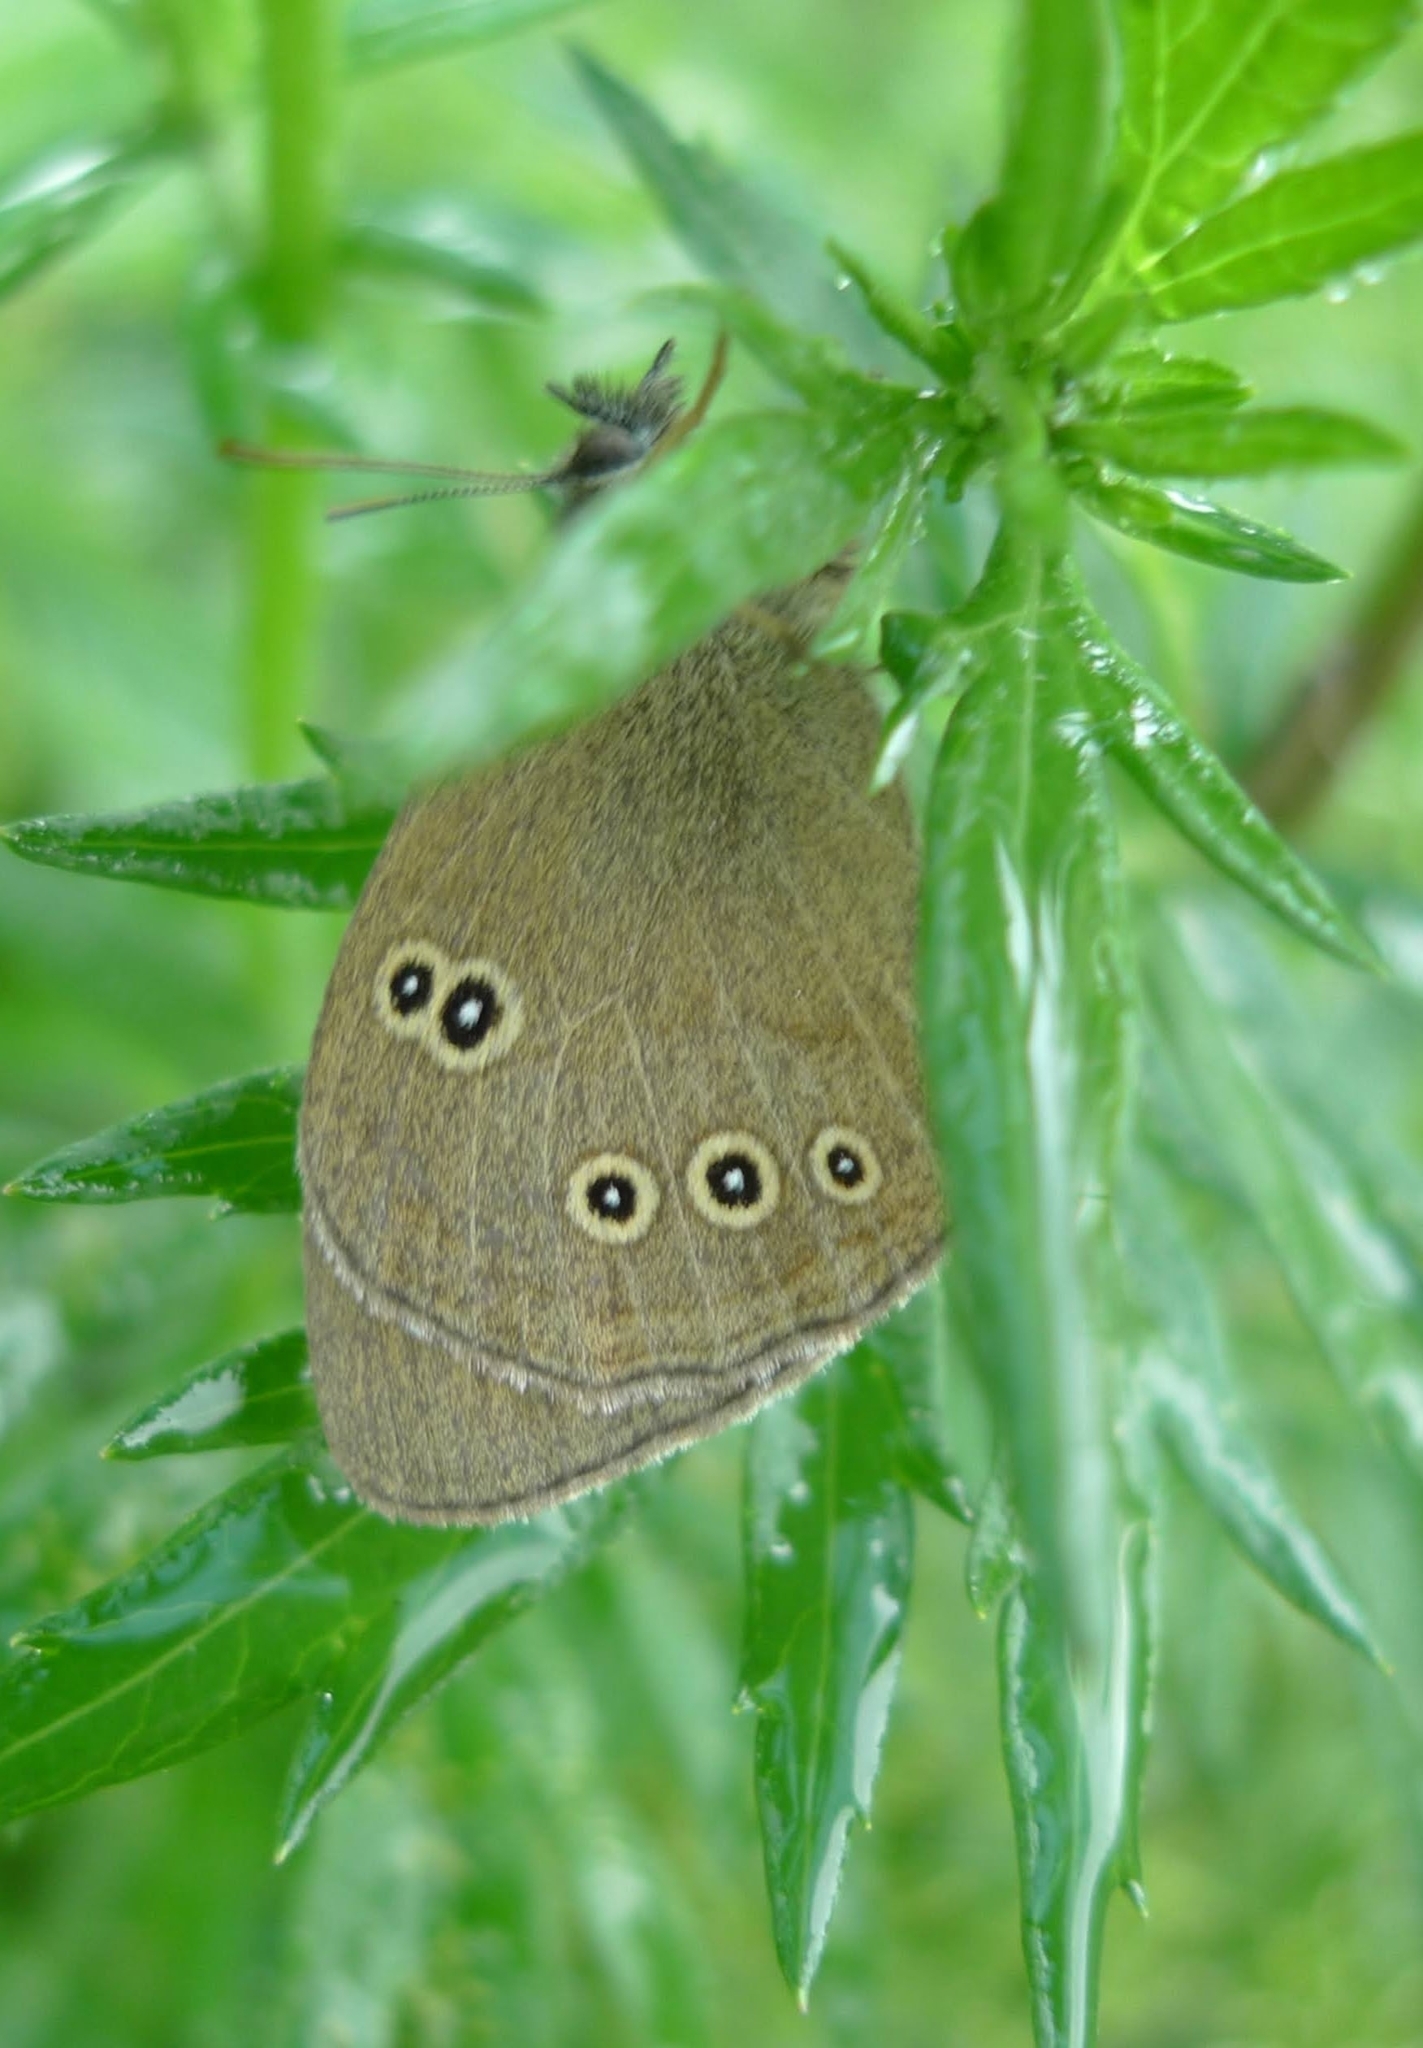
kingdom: Animalia
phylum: Arthropoda
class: Insecta
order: Lepidoptera
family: Nymphalidae
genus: Aphantopus
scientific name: Aphantopus hyperantus
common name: Ringlet
